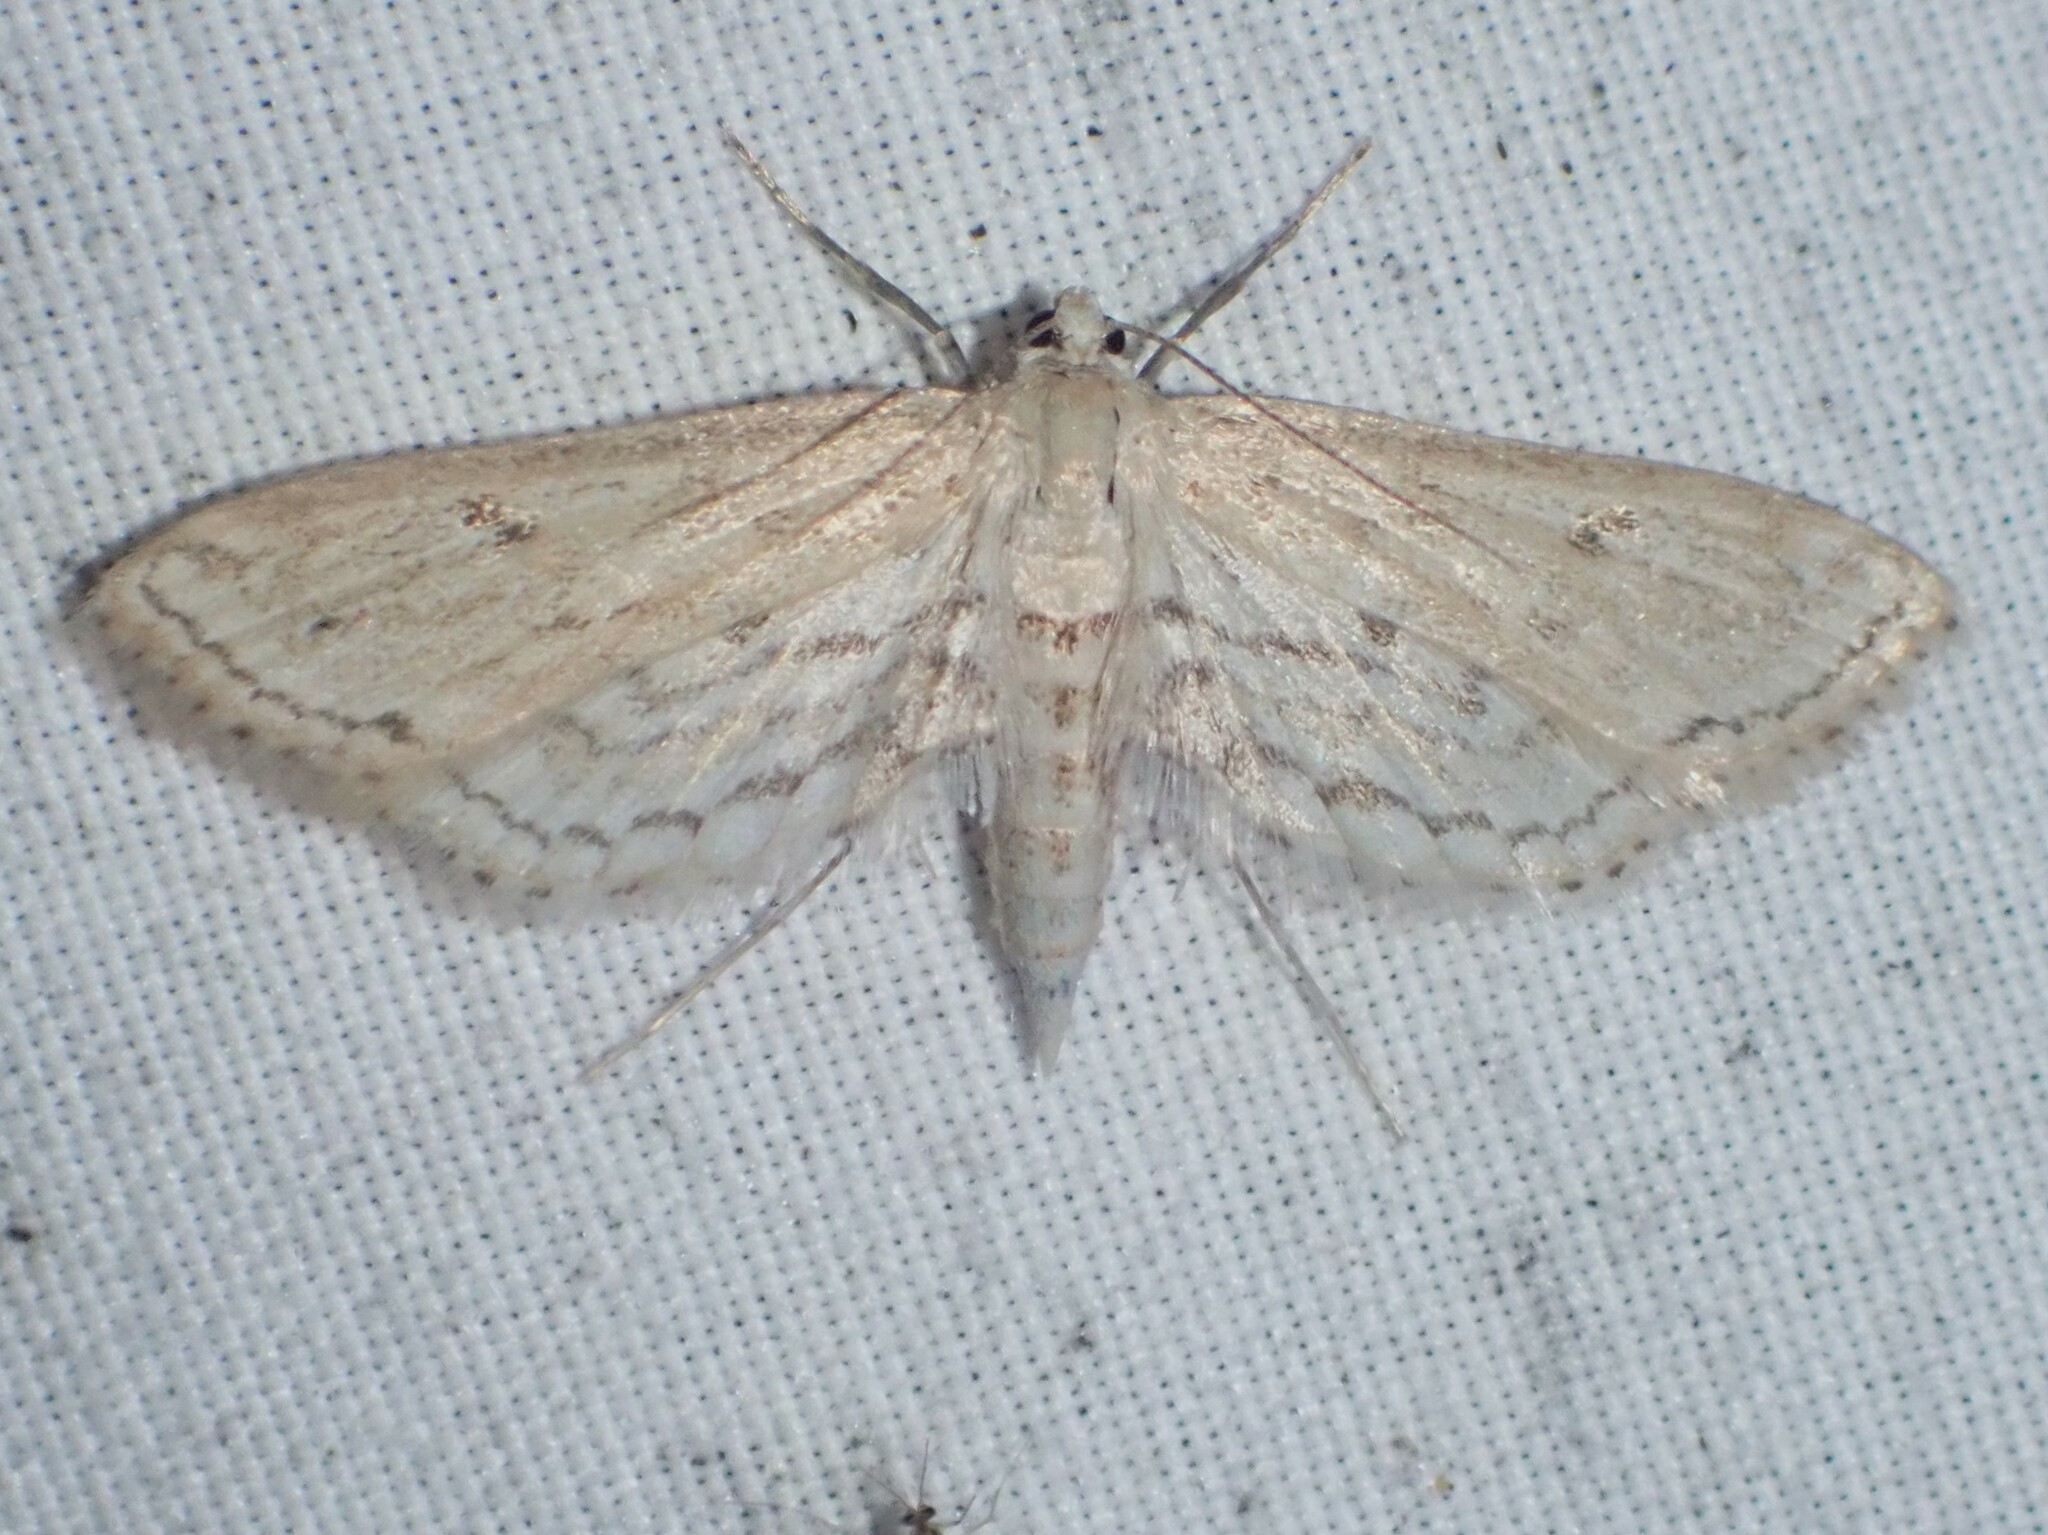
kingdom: Animalia
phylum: Arthropoda
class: Insecta
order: Lepidoptera
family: Crambidae
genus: Parapoynx
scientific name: Parapoynx allionealis
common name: Bladderwort casemaker
